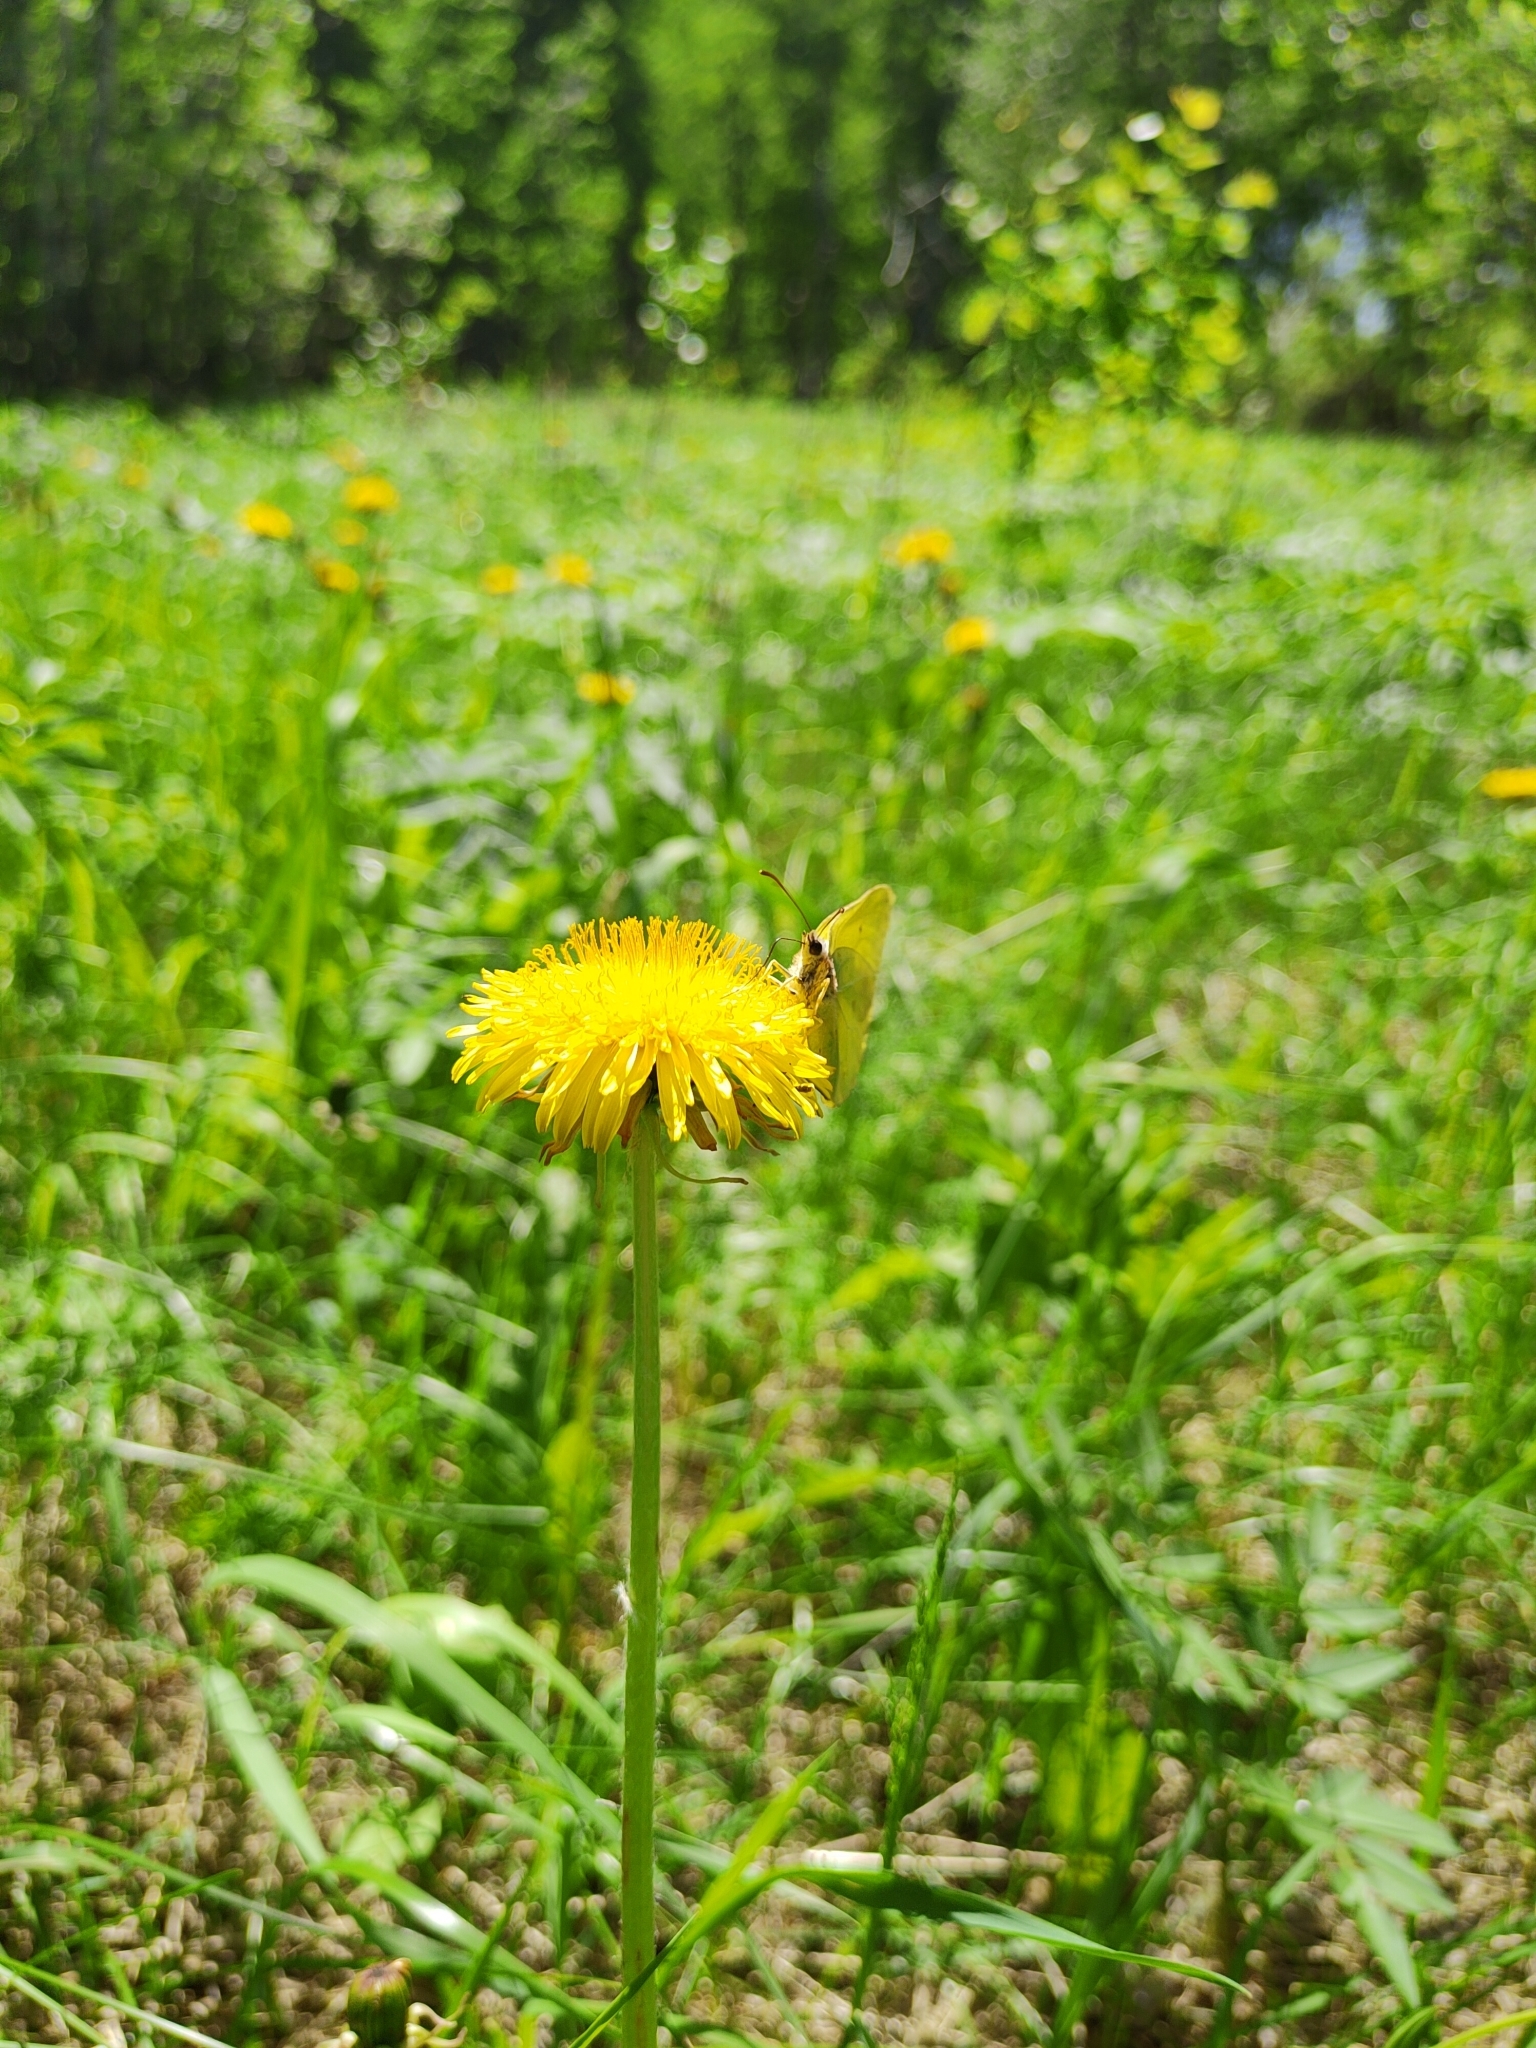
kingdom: Animalia
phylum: Arthropoda
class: Insecta
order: Lepidoptera
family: Pieridae
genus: Gonepteryx
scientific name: Gonepteryx rhamni
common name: Brimstone
